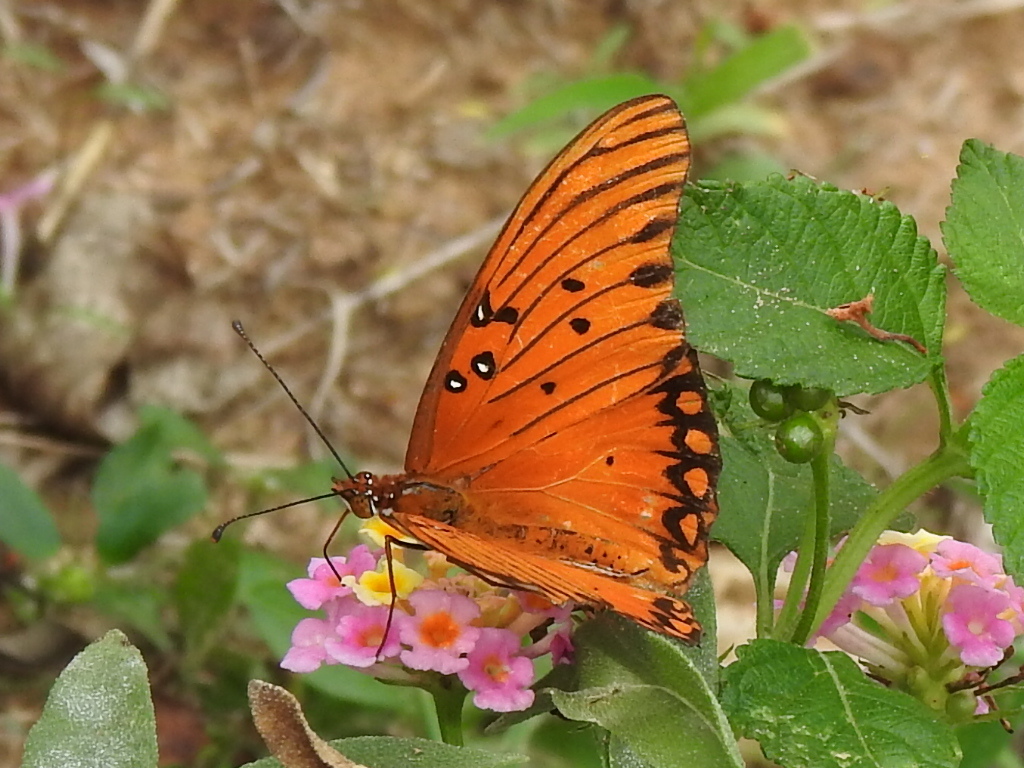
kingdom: Animalia
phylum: Arthropoda
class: Insecta
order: Lepidoptera
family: Nymphalidae
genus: Dione
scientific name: Dione vanillae
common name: Gulf fritillary
